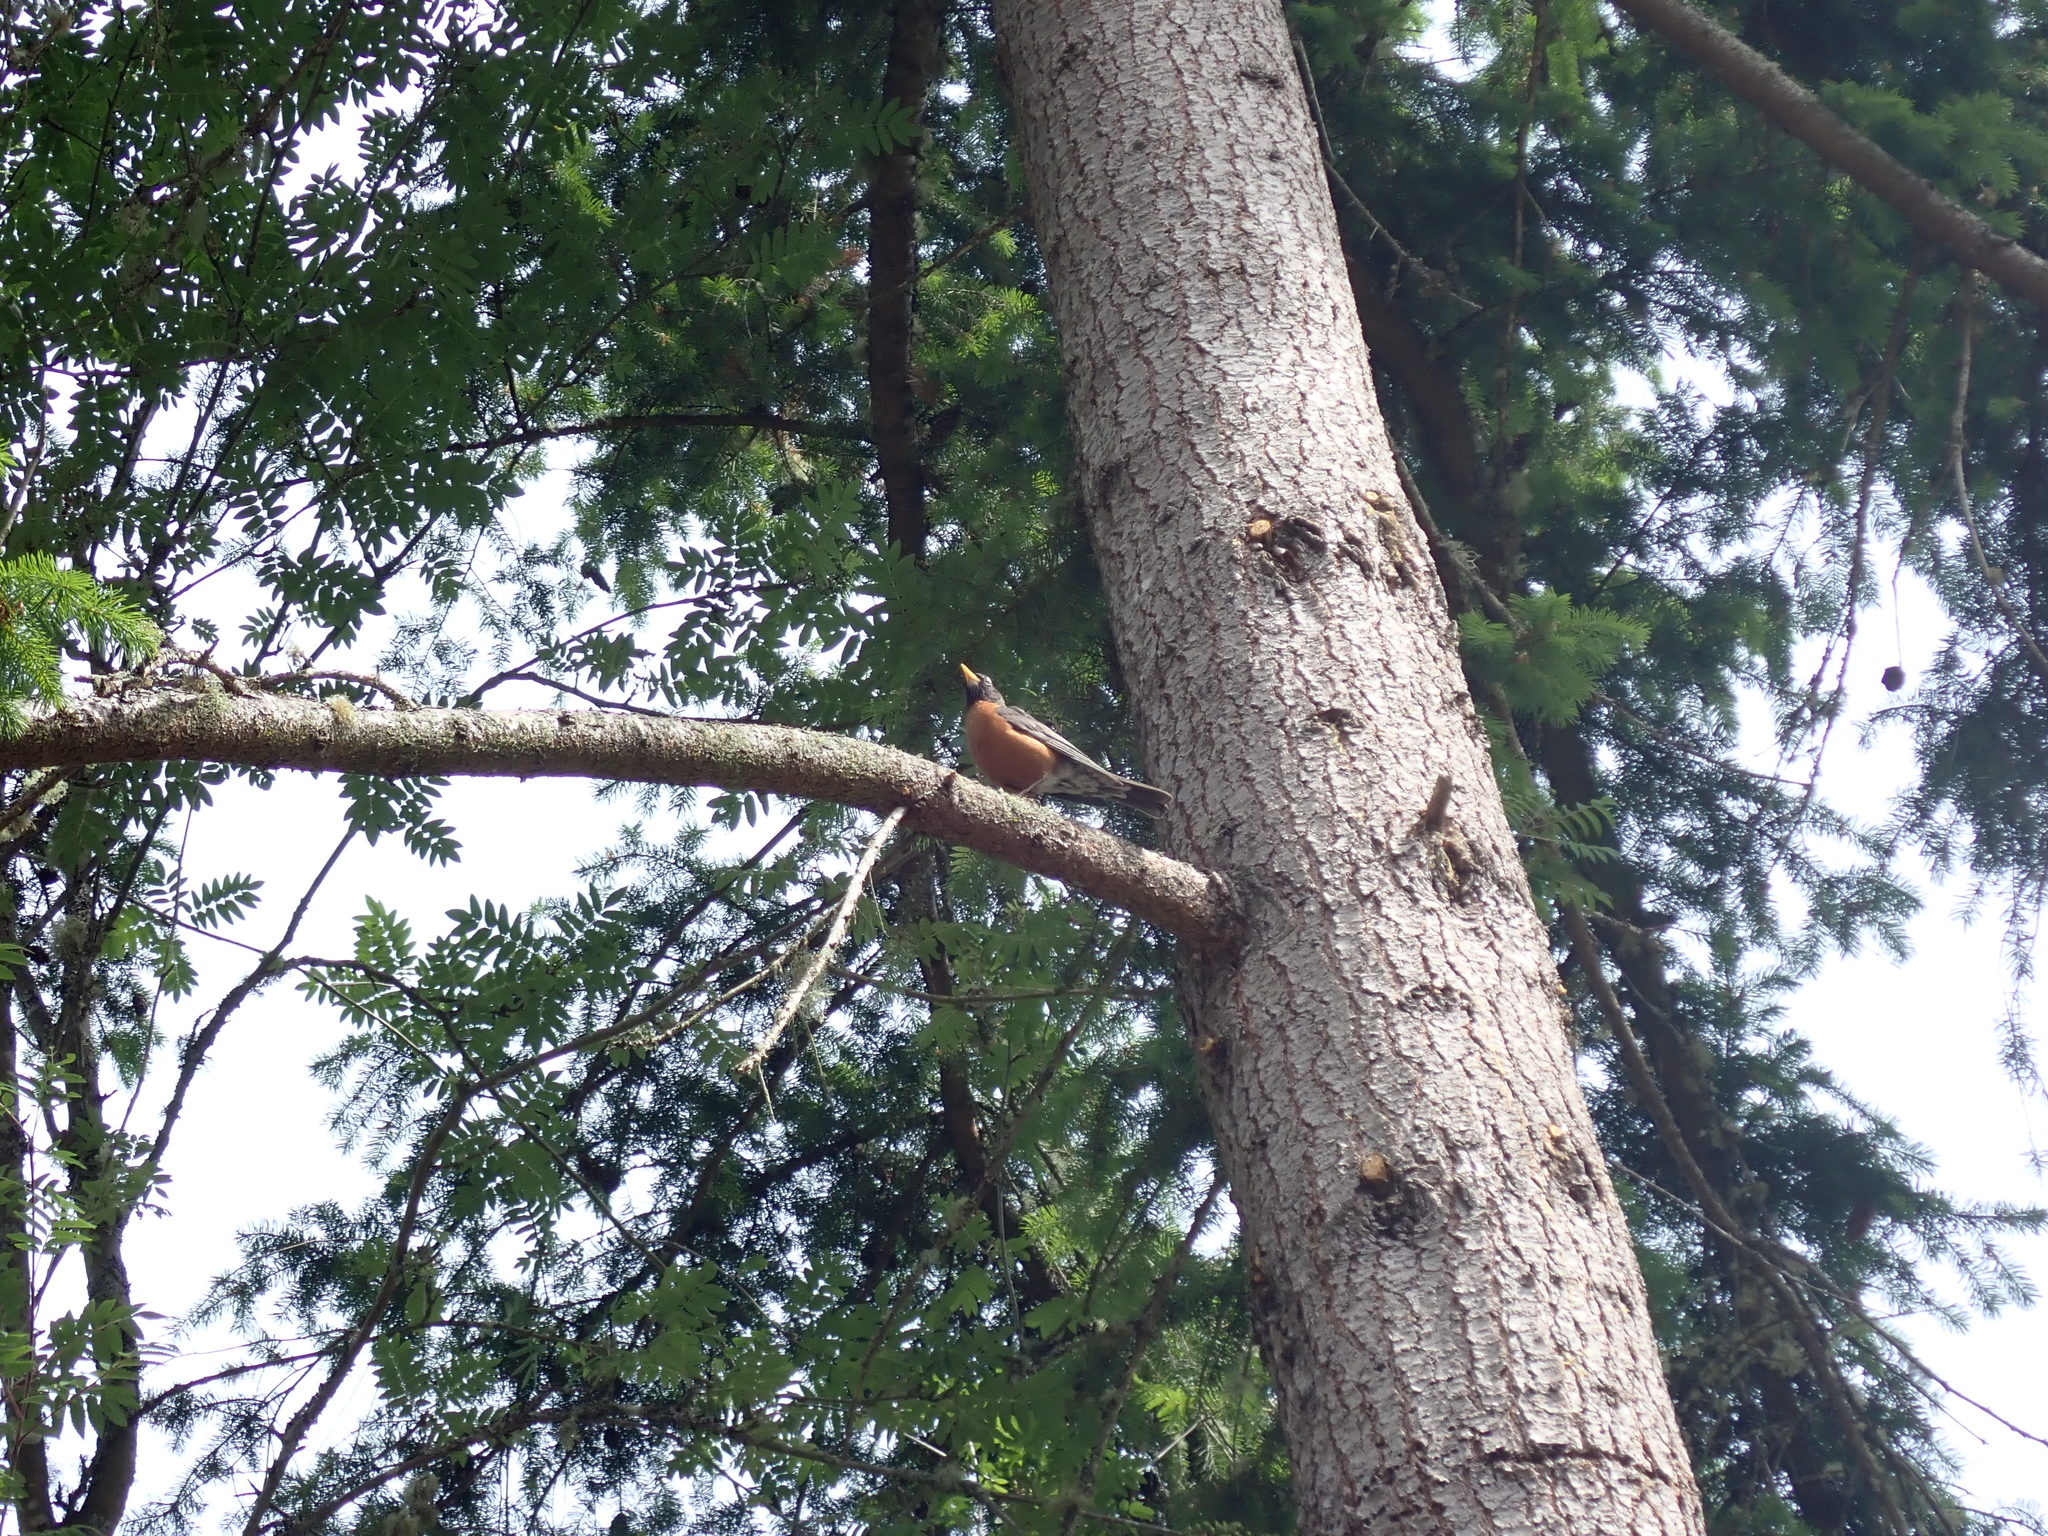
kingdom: Animalia
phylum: Chordata
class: Aves
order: Passeriformes
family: Turdidae
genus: Turdus
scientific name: Turdus migratorius
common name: American robin
